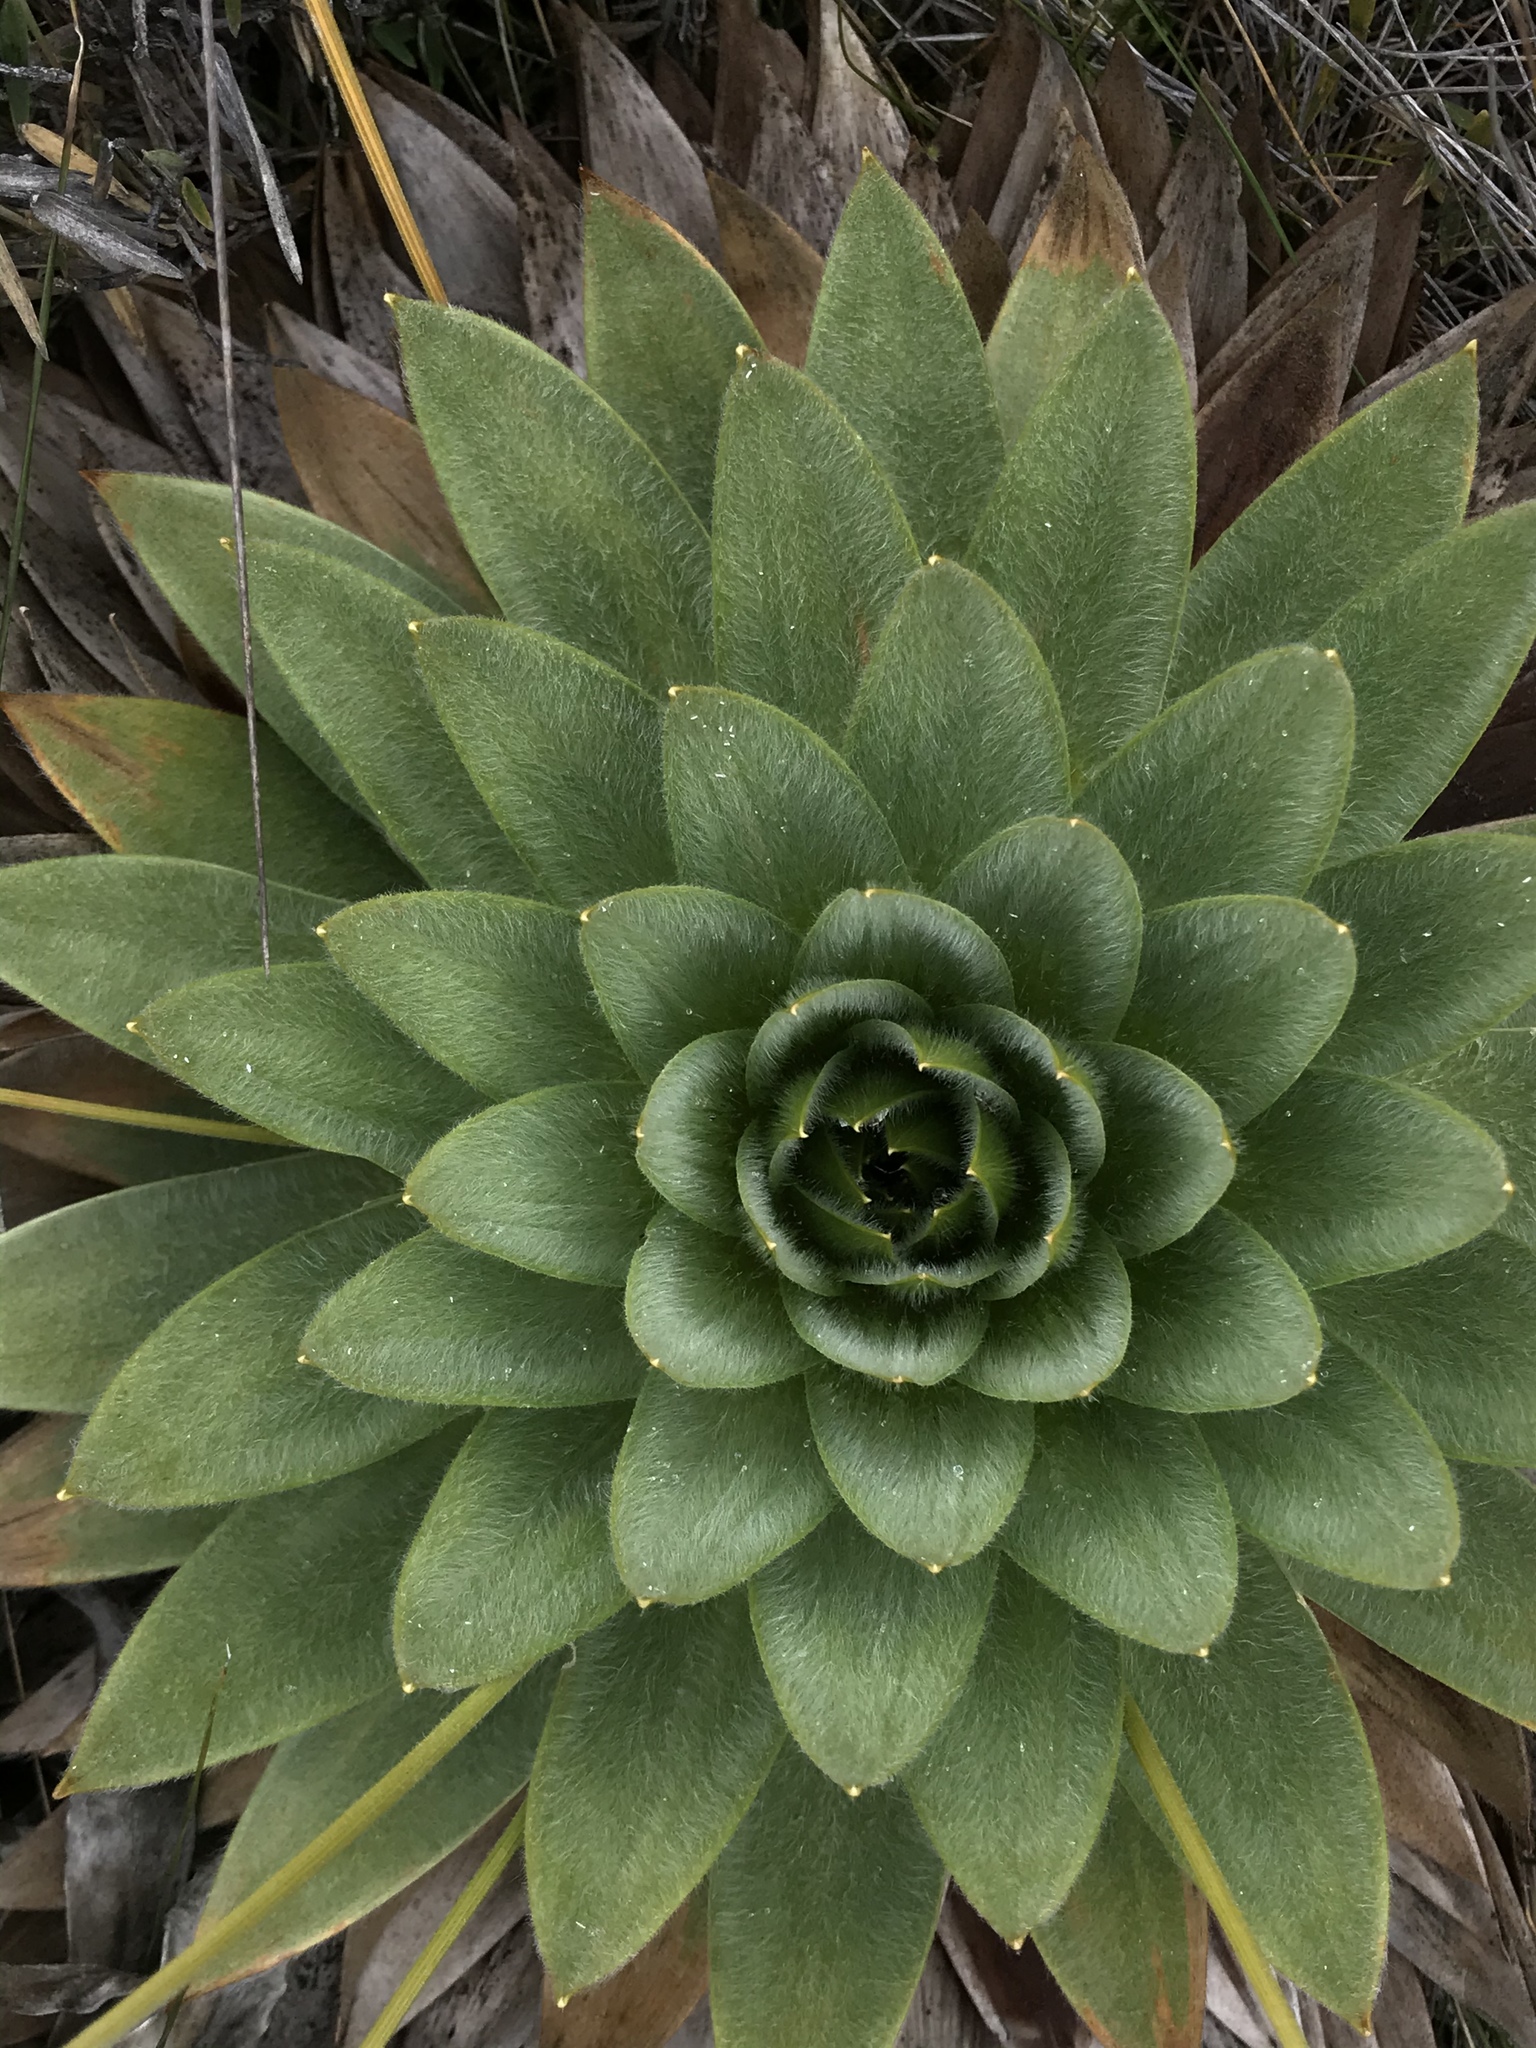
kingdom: Plantae
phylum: Tracheophyta
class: Liliopsida
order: Poales
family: Eriocaulaceae
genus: Paepalanthus
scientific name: Paepalanthus alpinus
